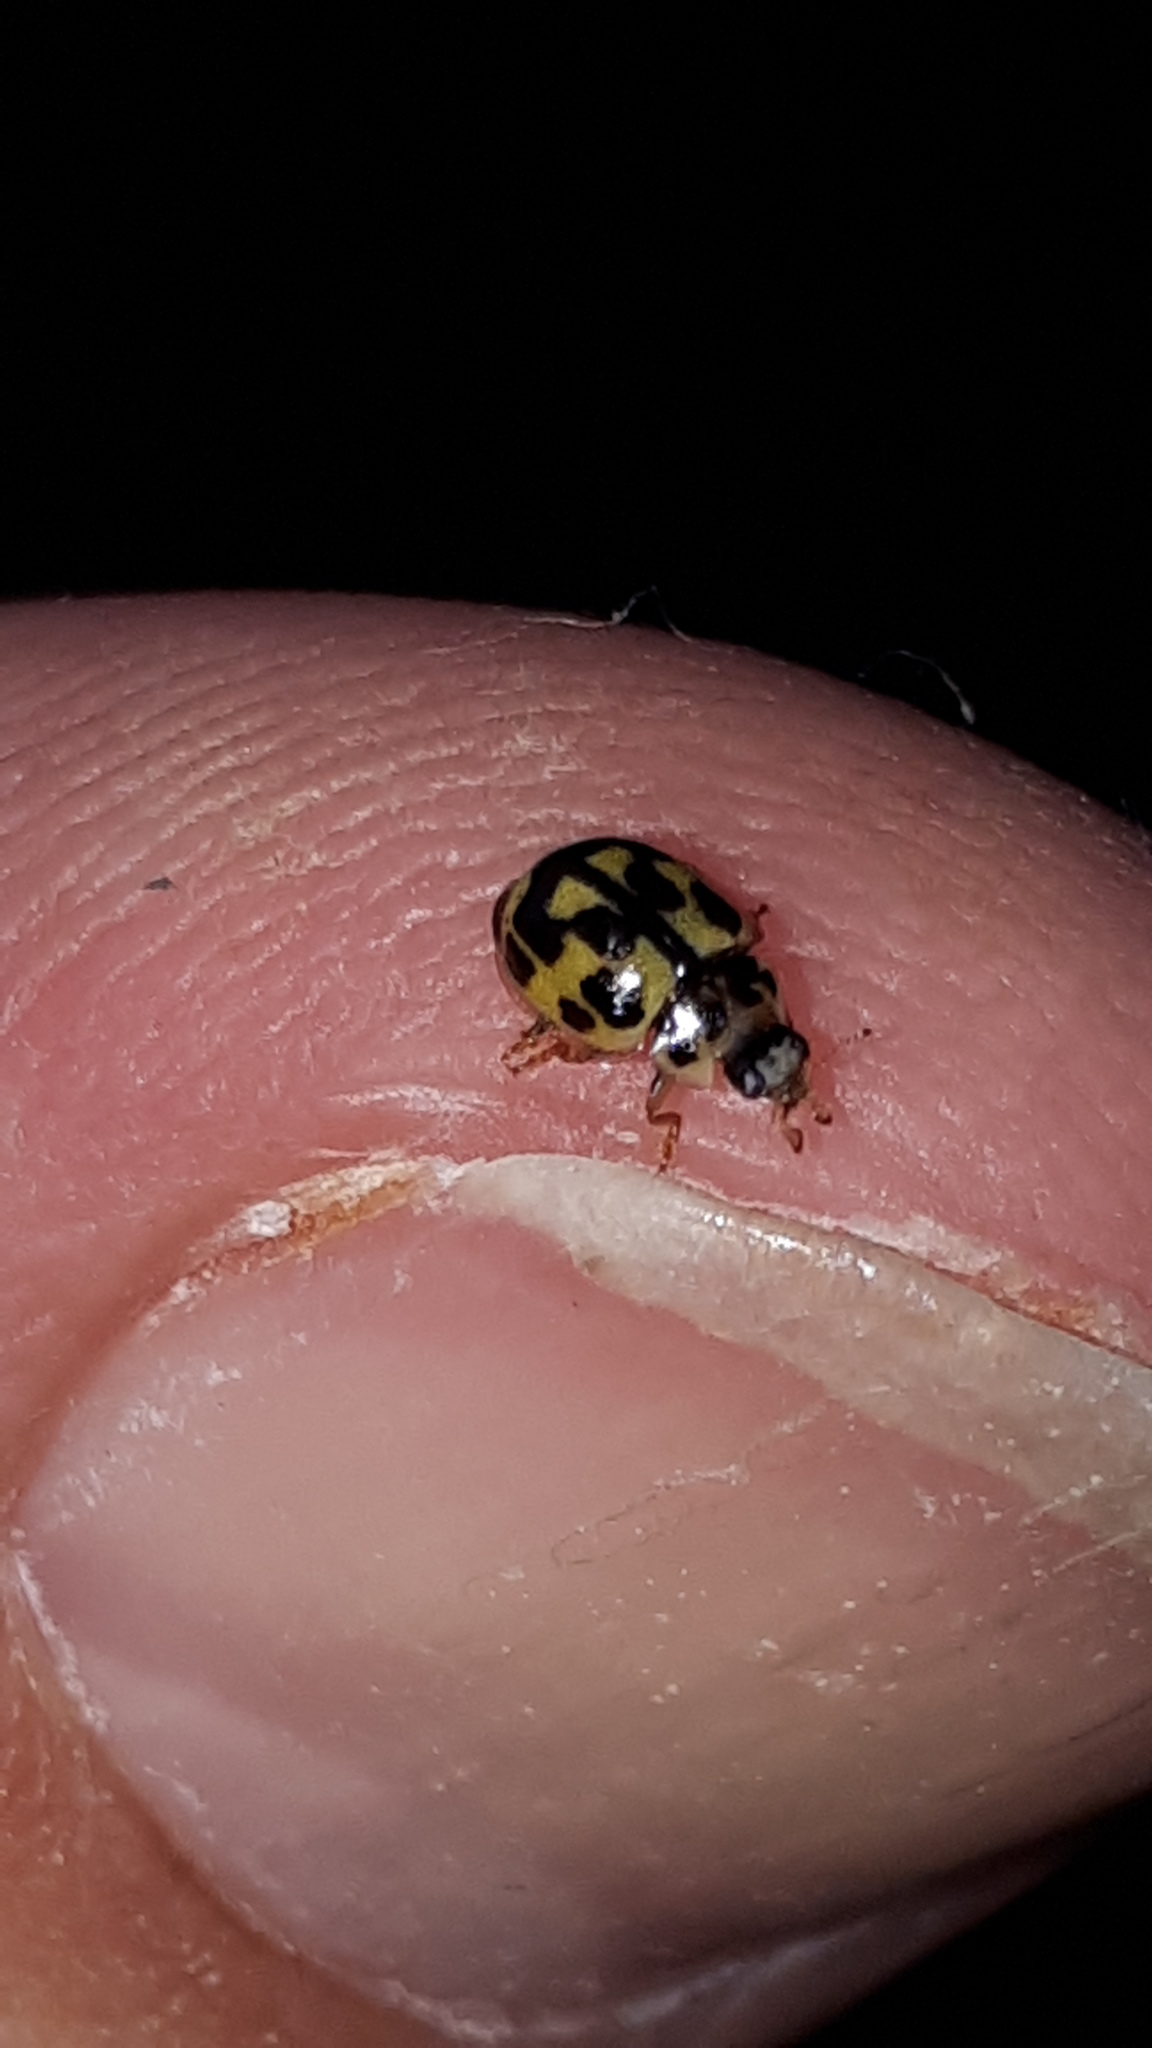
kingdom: Animalia
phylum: Arthropoda
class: Insecta
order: Coleoptera
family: Coccinellidae
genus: Propylaea
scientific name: Propylaea quatuordecimpunctata
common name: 14-spotted ladybird beetle
